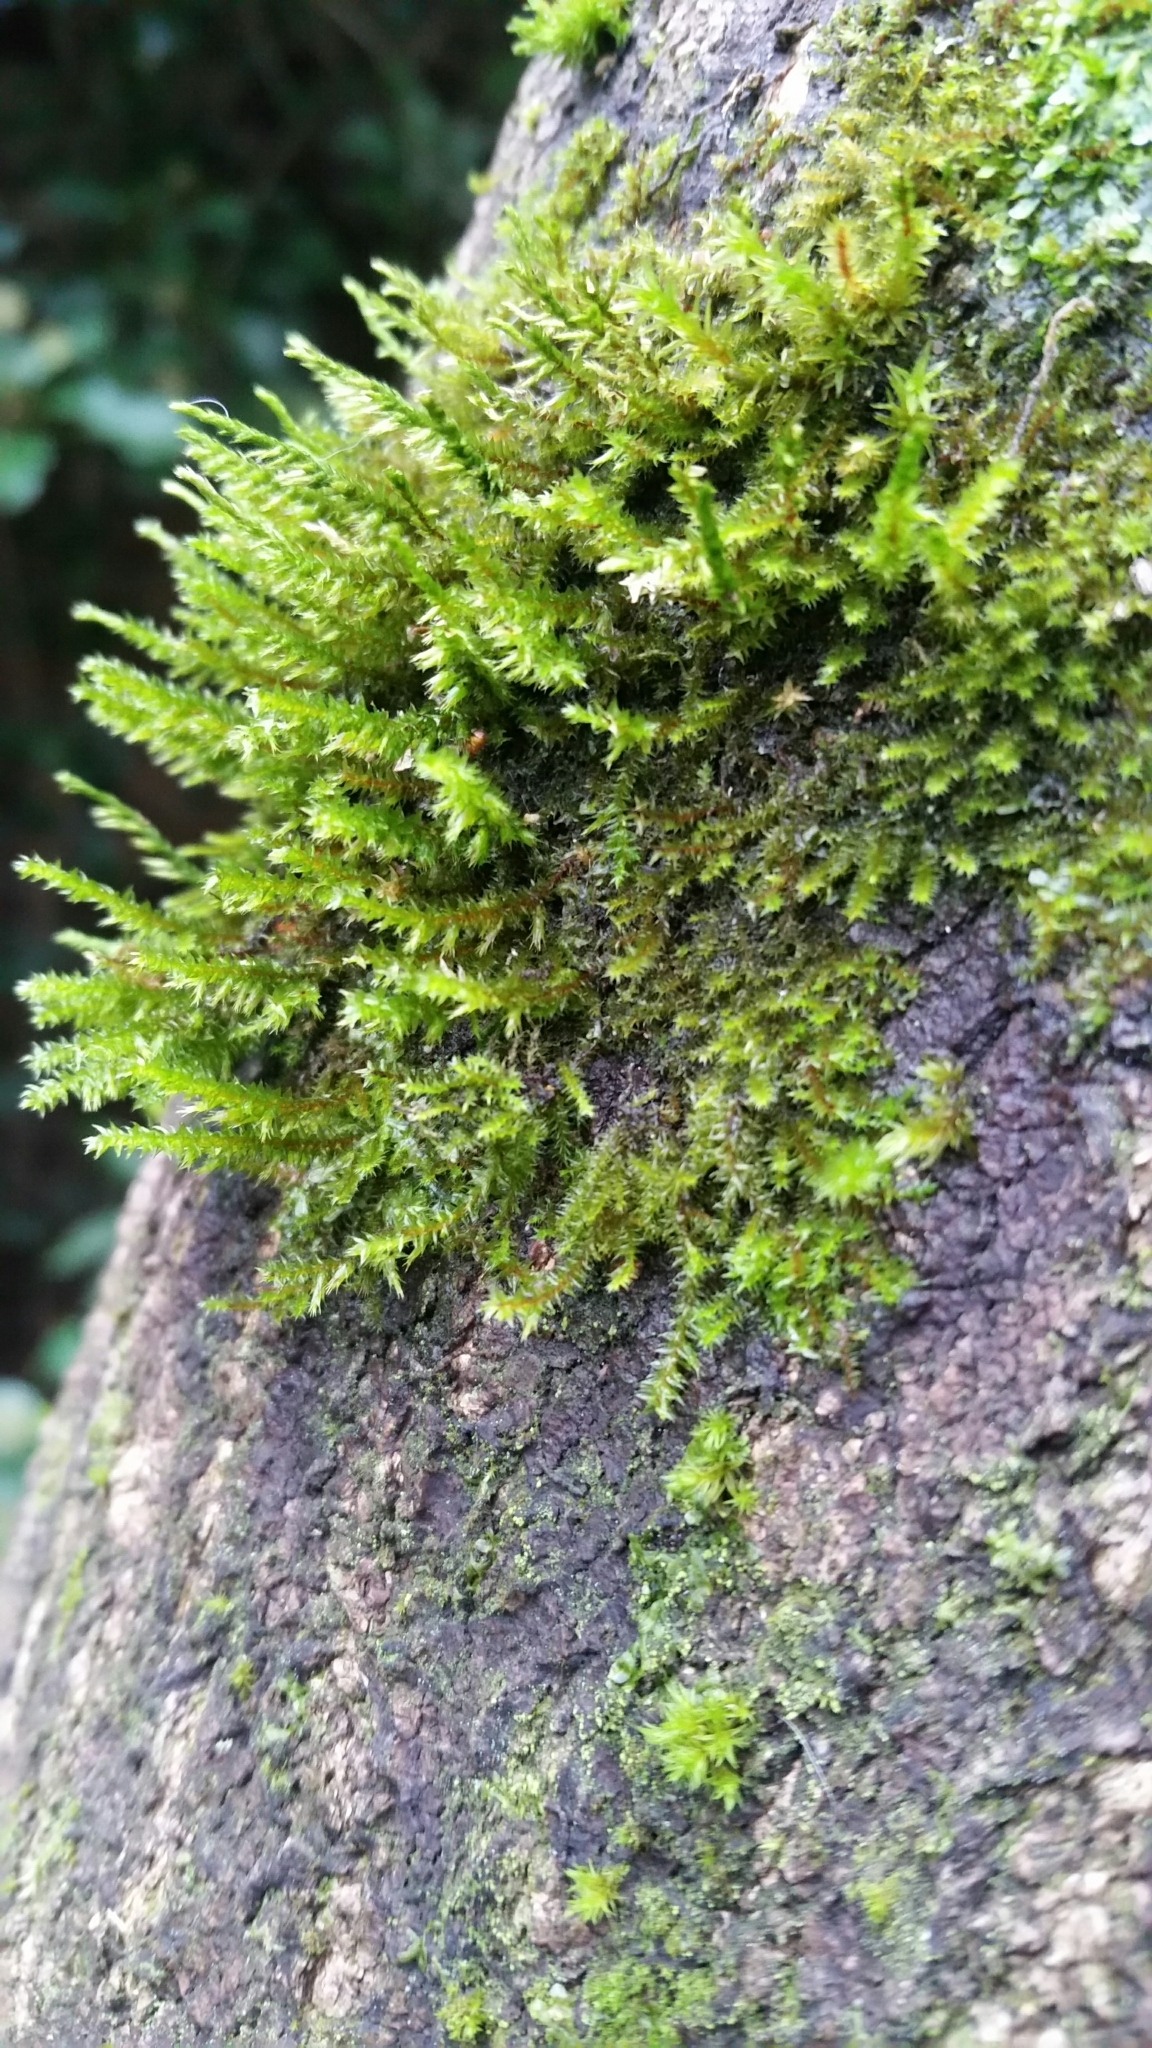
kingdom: Plantae
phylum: Bryophyta
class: Bryopsida
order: Hypnales
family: Cryphaeaceae
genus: Cryphaea
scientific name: Cryphaea heteromalla
